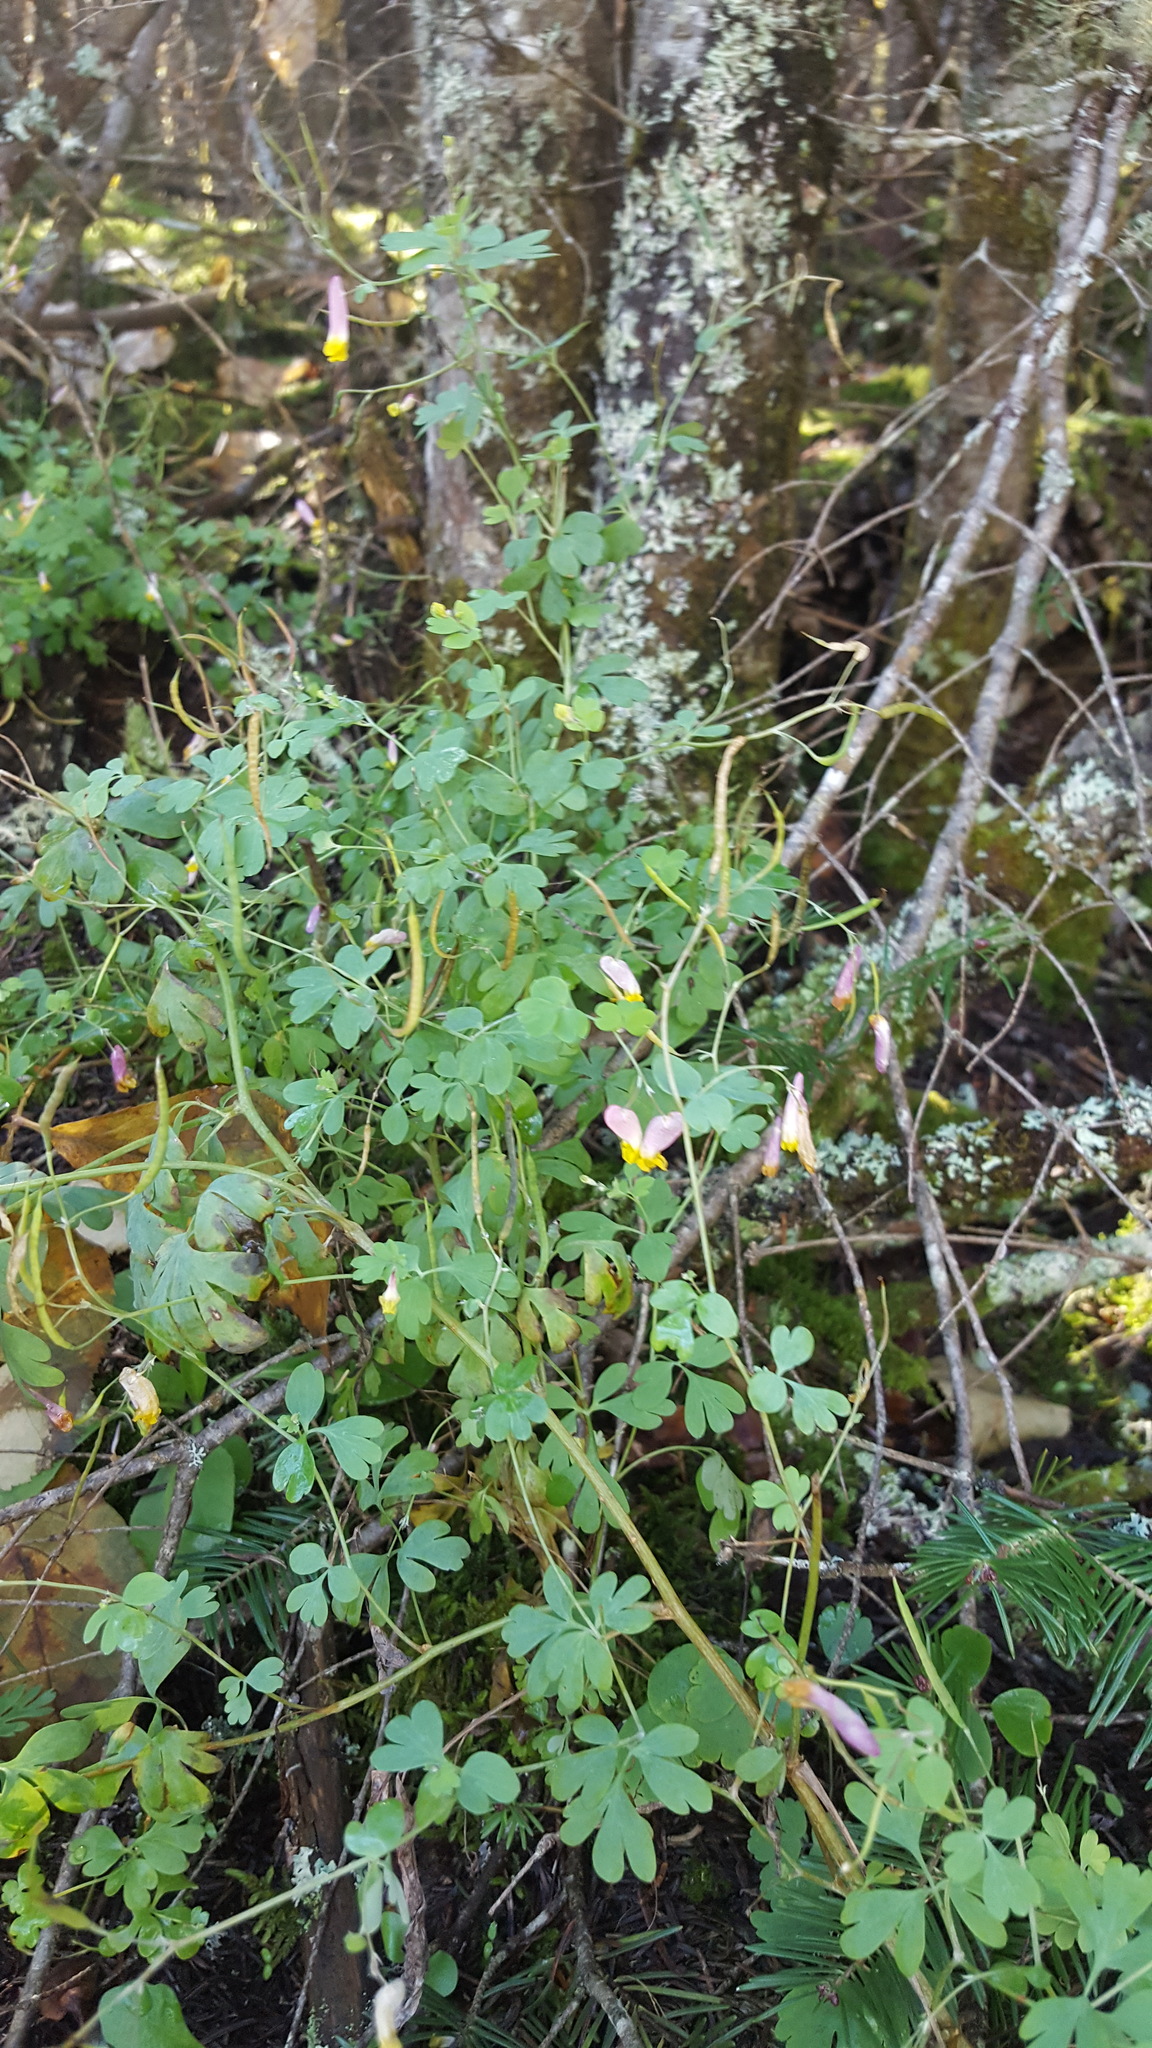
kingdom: Plantae
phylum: Tracheophyta
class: Magnoliopsida
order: Ranunculales
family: Papaveraceae
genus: Capnoides
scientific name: Capnoides sempervirens
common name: Rock harlequin
